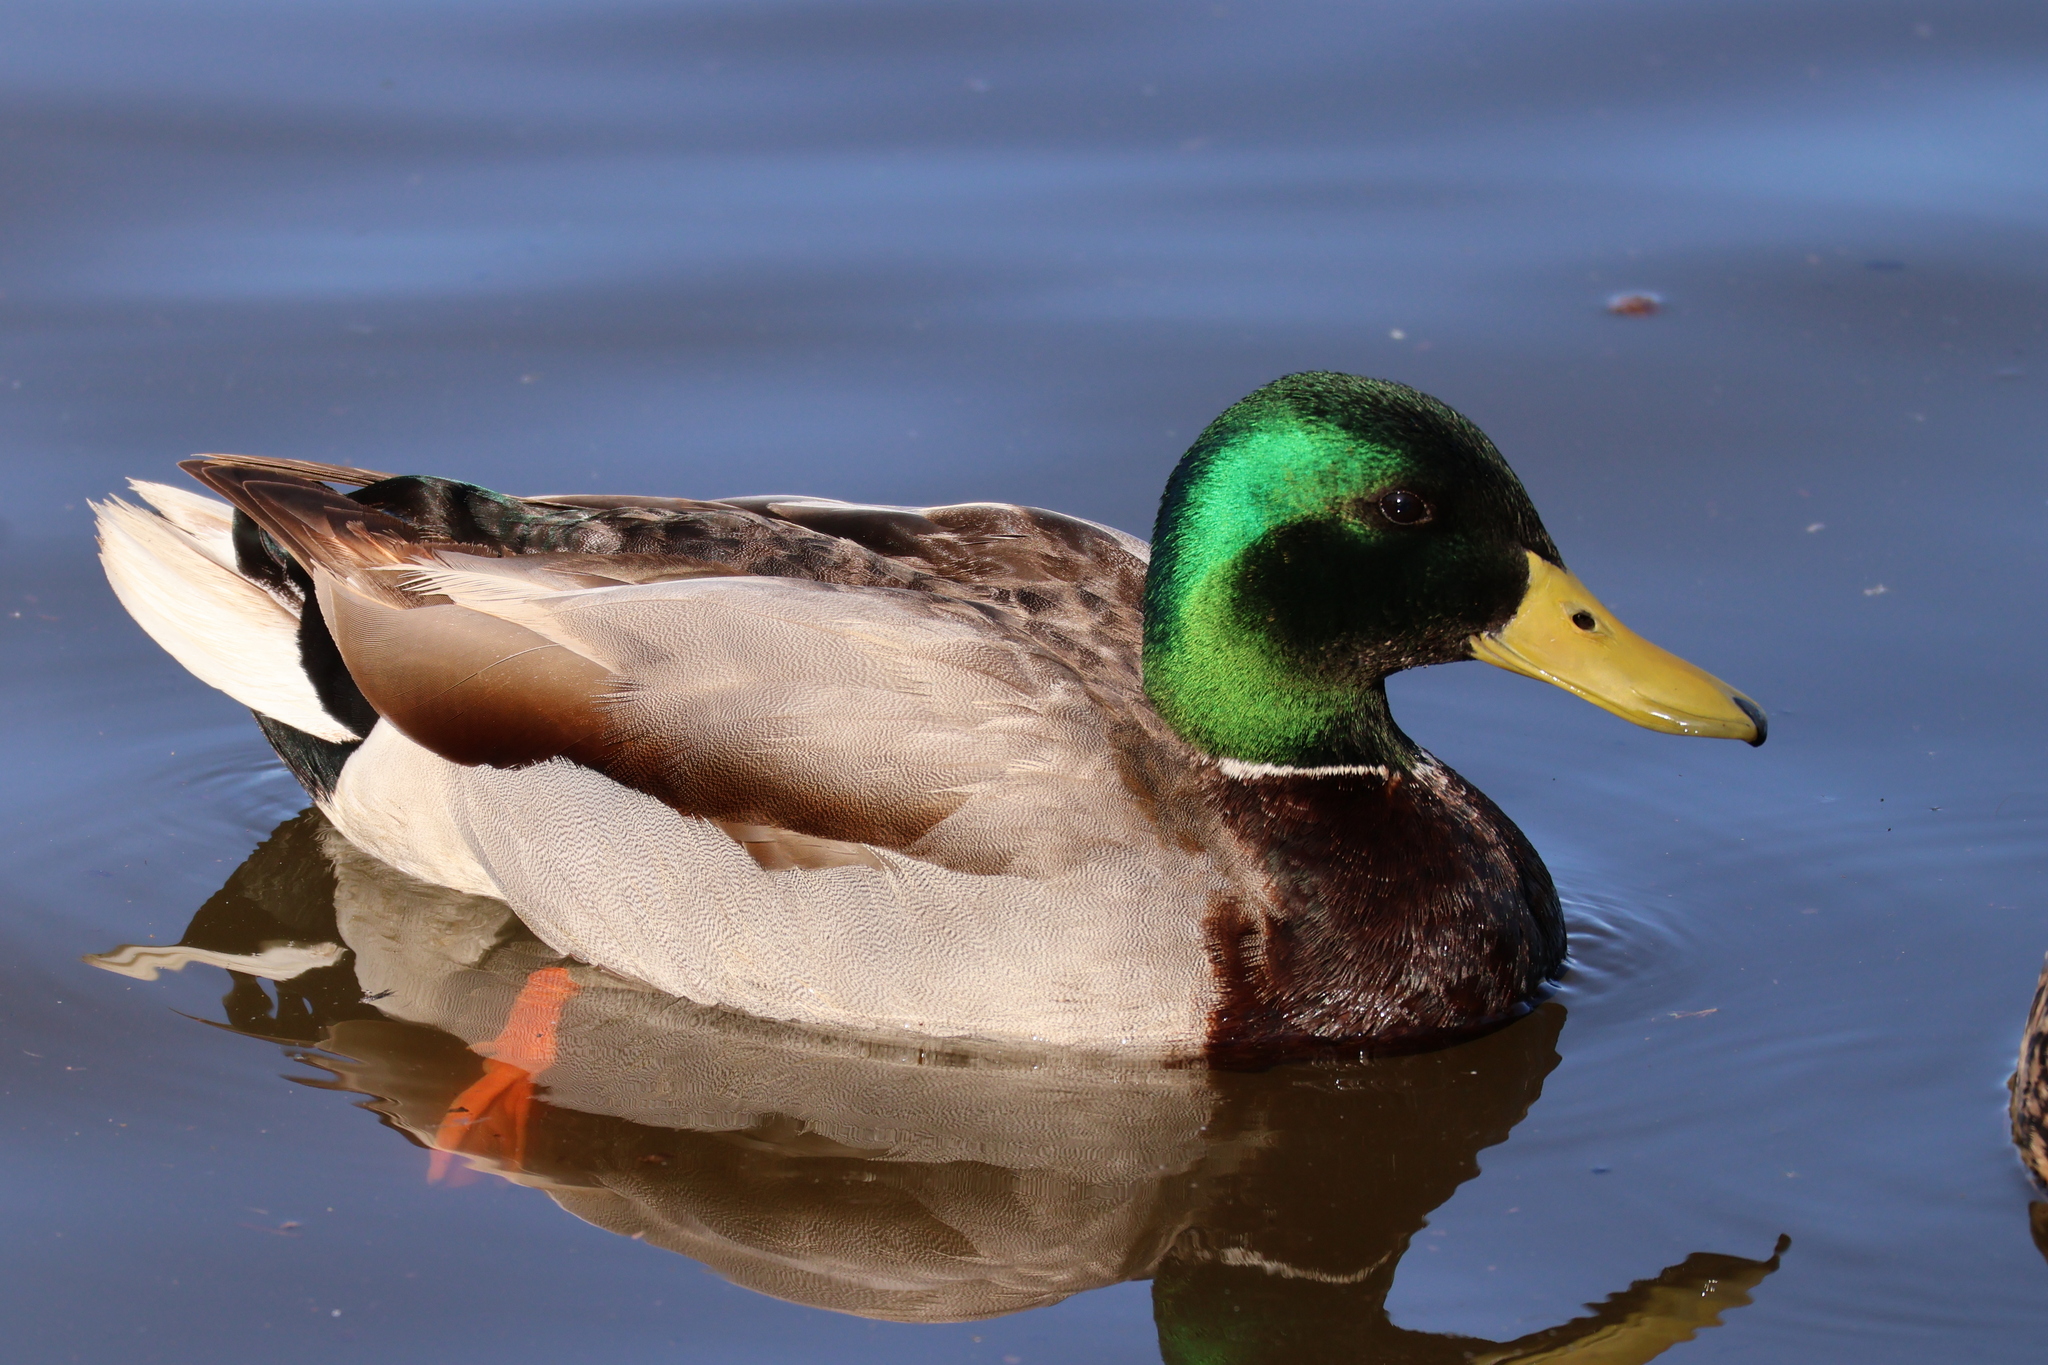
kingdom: Animalia
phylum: Chordata
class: Aves
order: Anseriformes
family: Anatidae
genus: Anas
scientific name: Anas platyrhynchos
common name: Mallard
